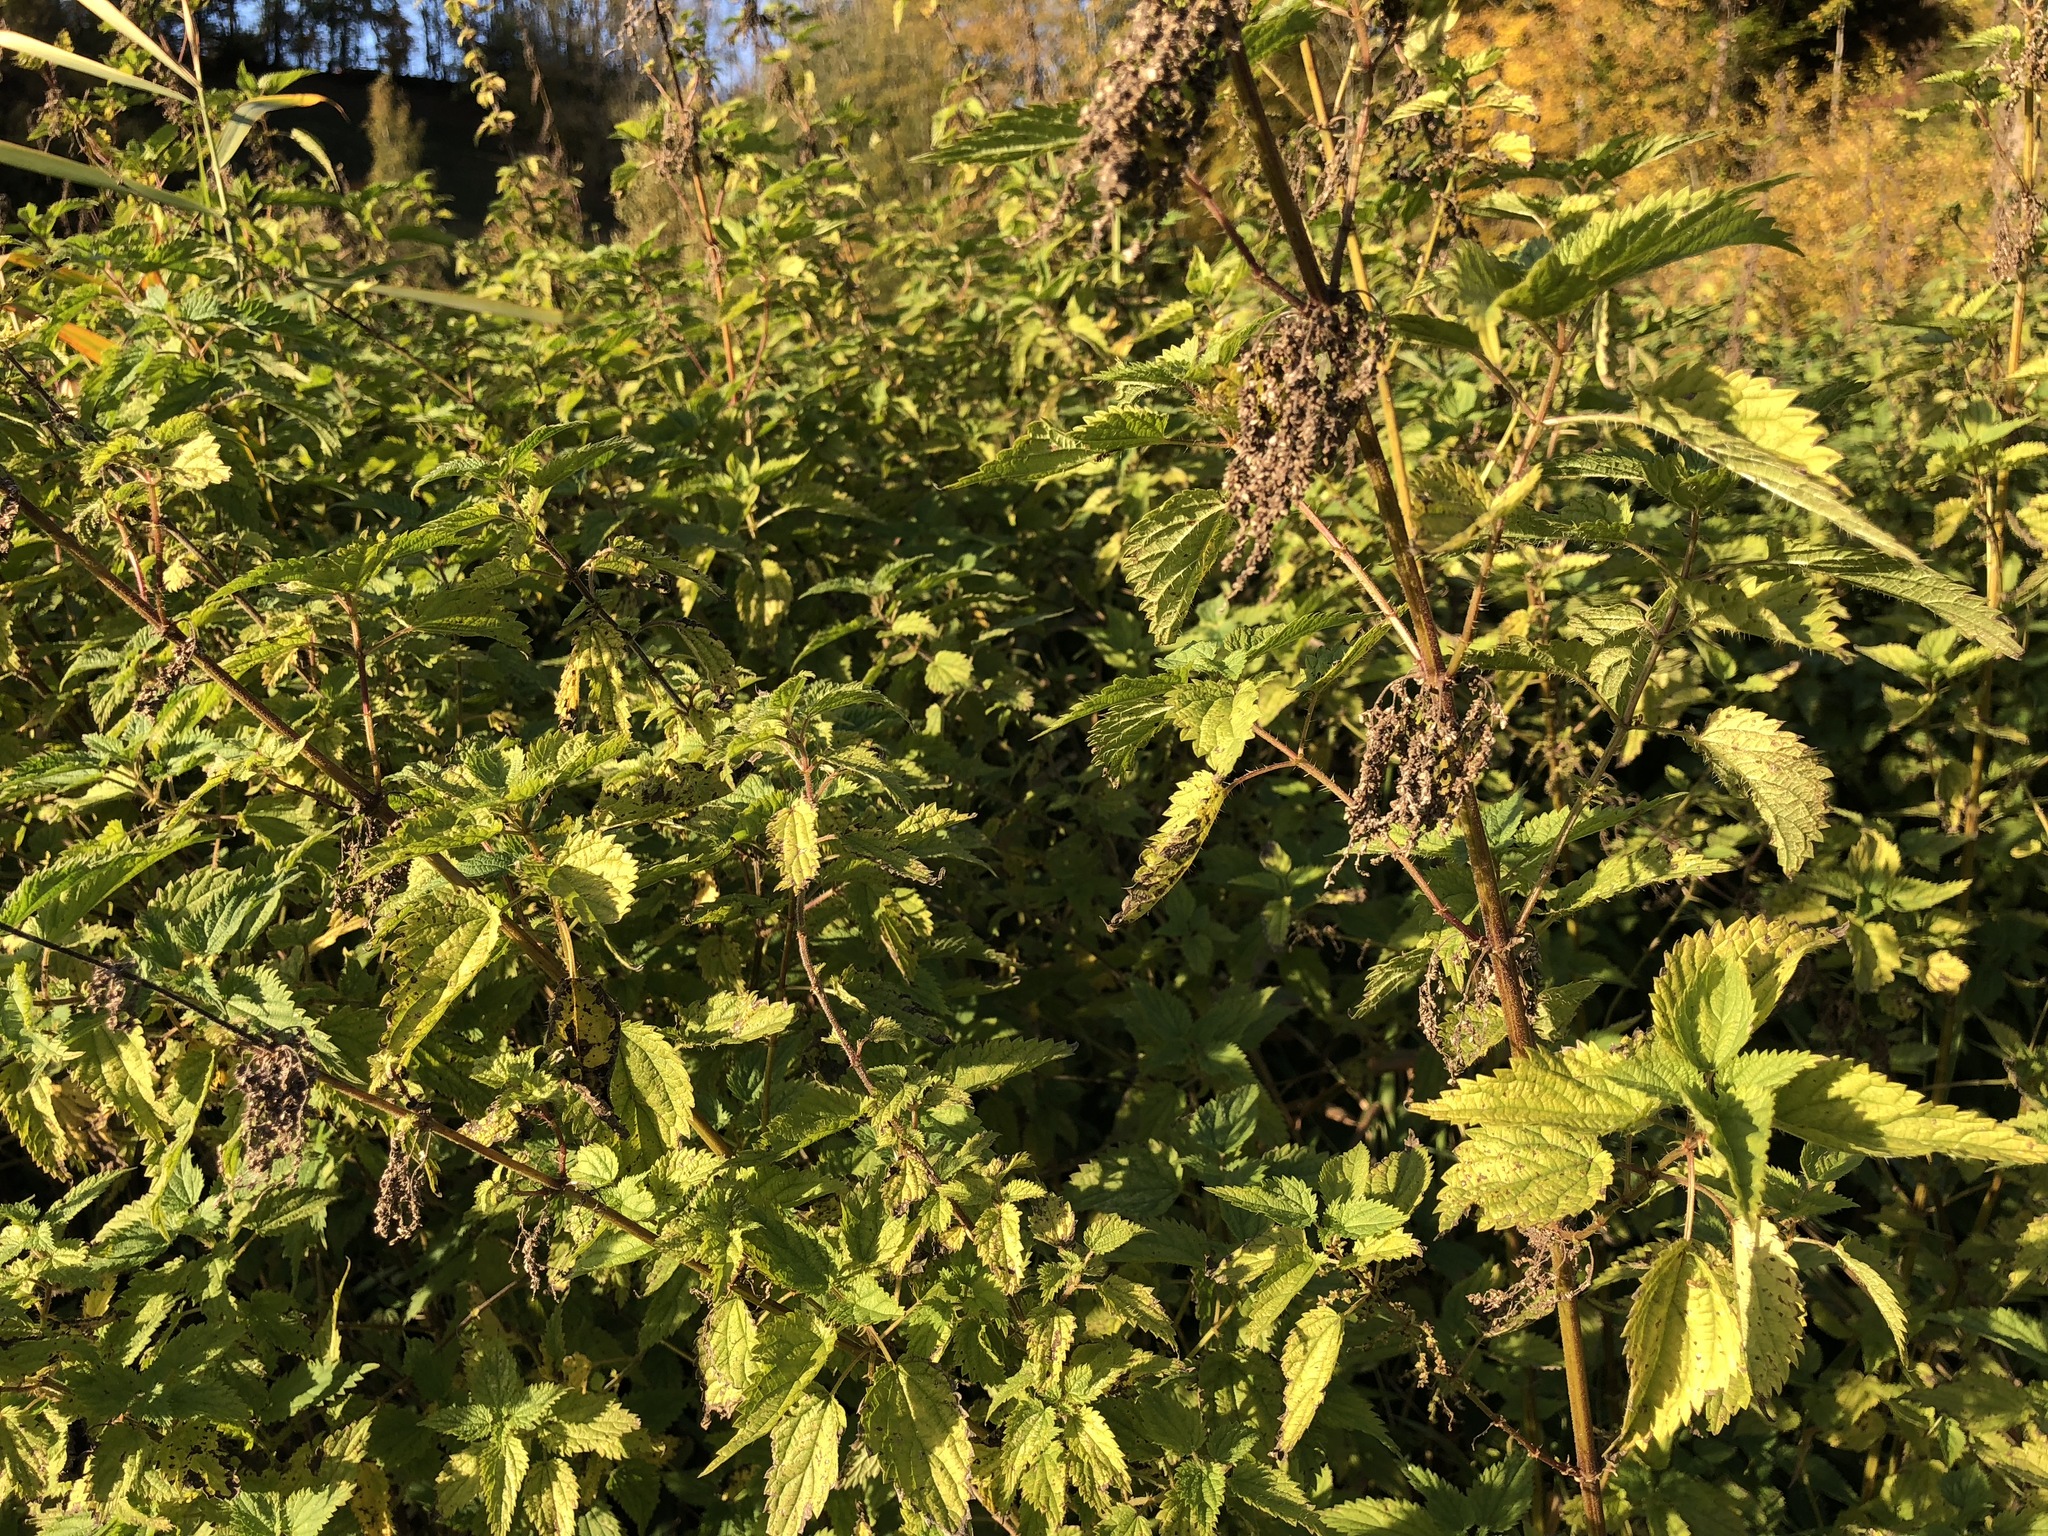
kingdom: Plantae
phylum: Tracheophyta
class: Magnoliopsida
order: Rosales
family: Urticaceae
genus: Urtica
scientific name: Urtica dioica
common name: Common nettle
